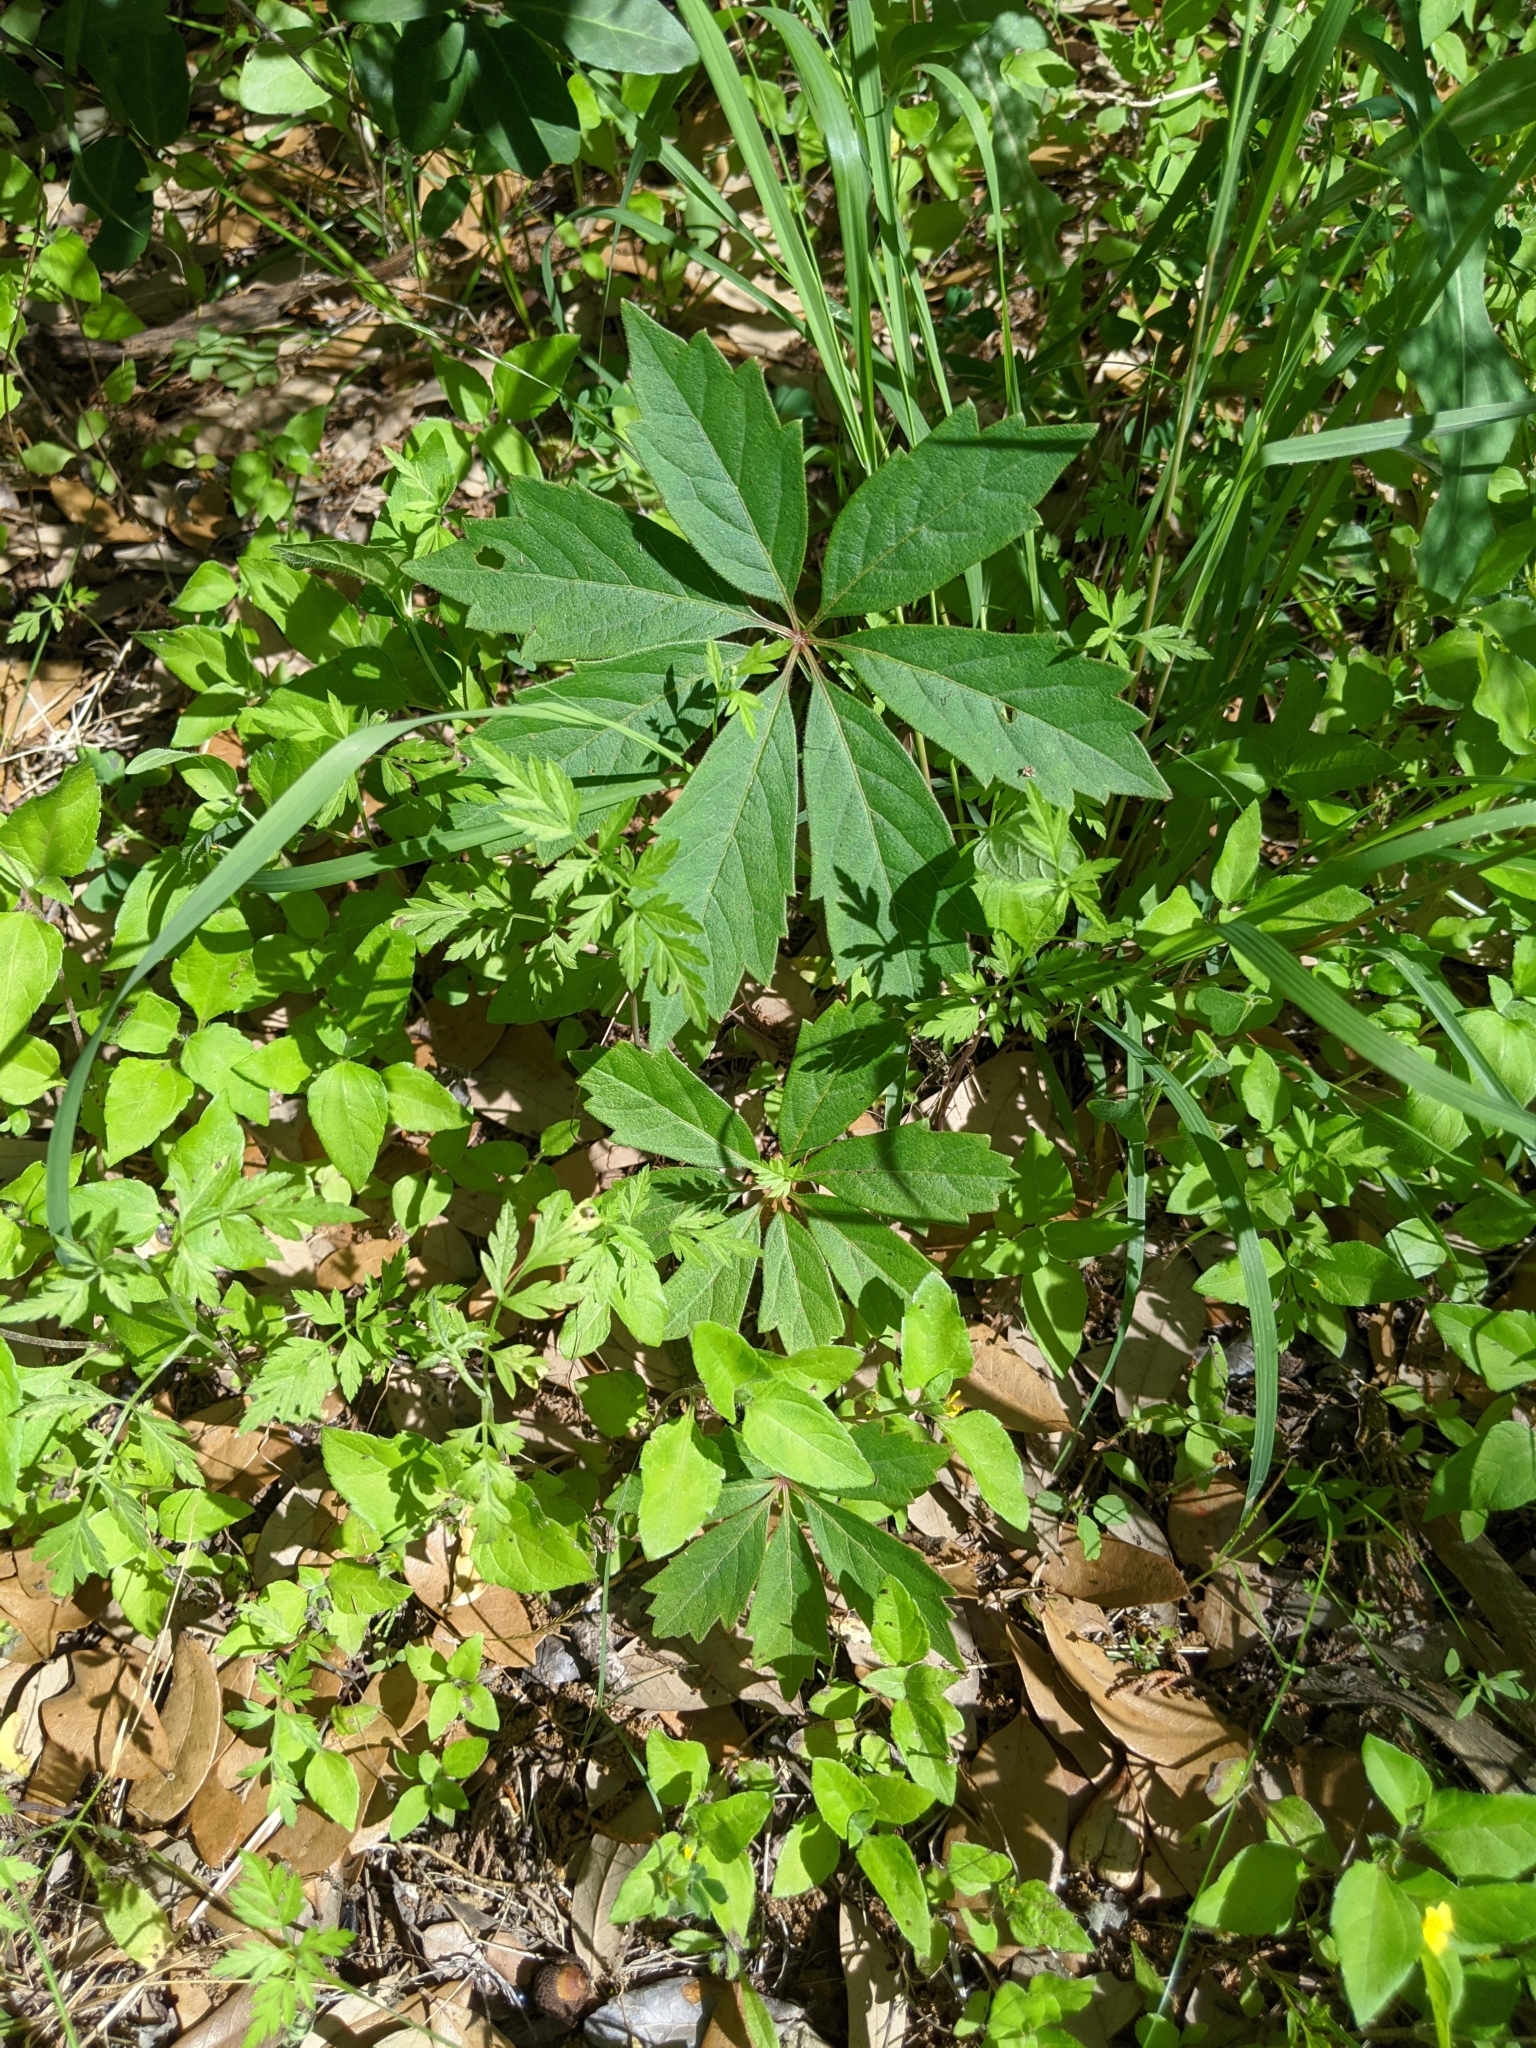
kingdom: Plantae
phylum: Tracheophyta
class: Magnoliopsida
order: Vitales
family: Vitaceae
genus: Parthenocissus
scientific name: Parthenocissus heptaphylla
